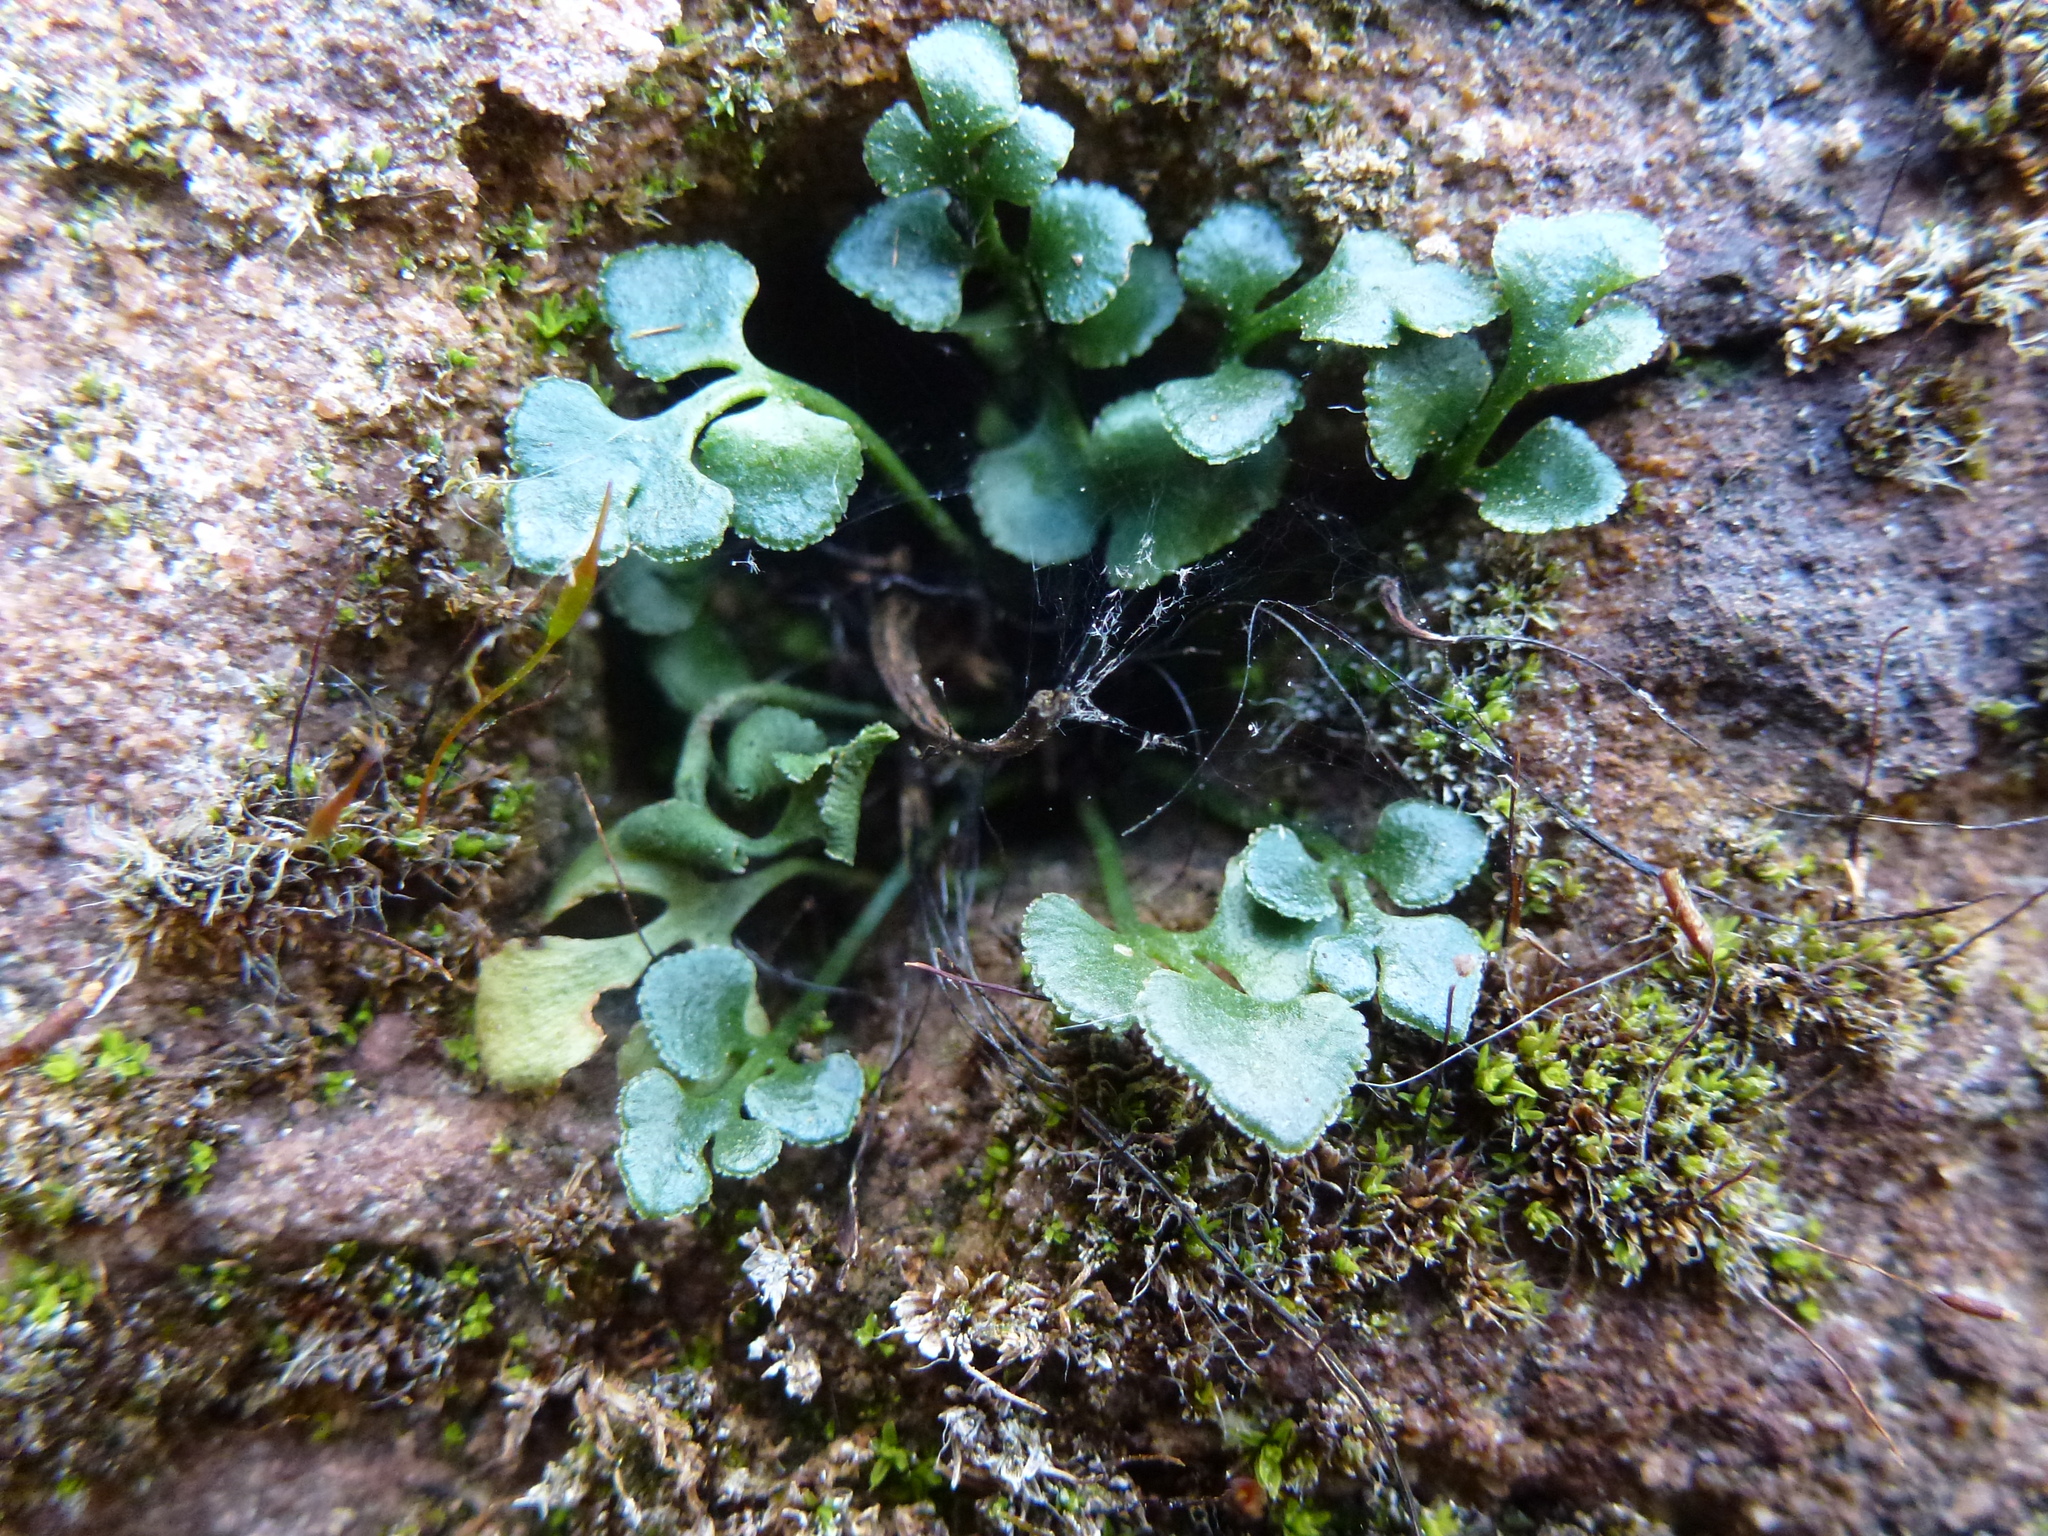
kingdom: Plantae
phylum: Tracheophyta
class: Polypodiopsida
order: Polypodiales
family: Aspleniaceae
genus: Asplenium
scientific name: Asplenium ruta-muraria
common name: Wall-rue
